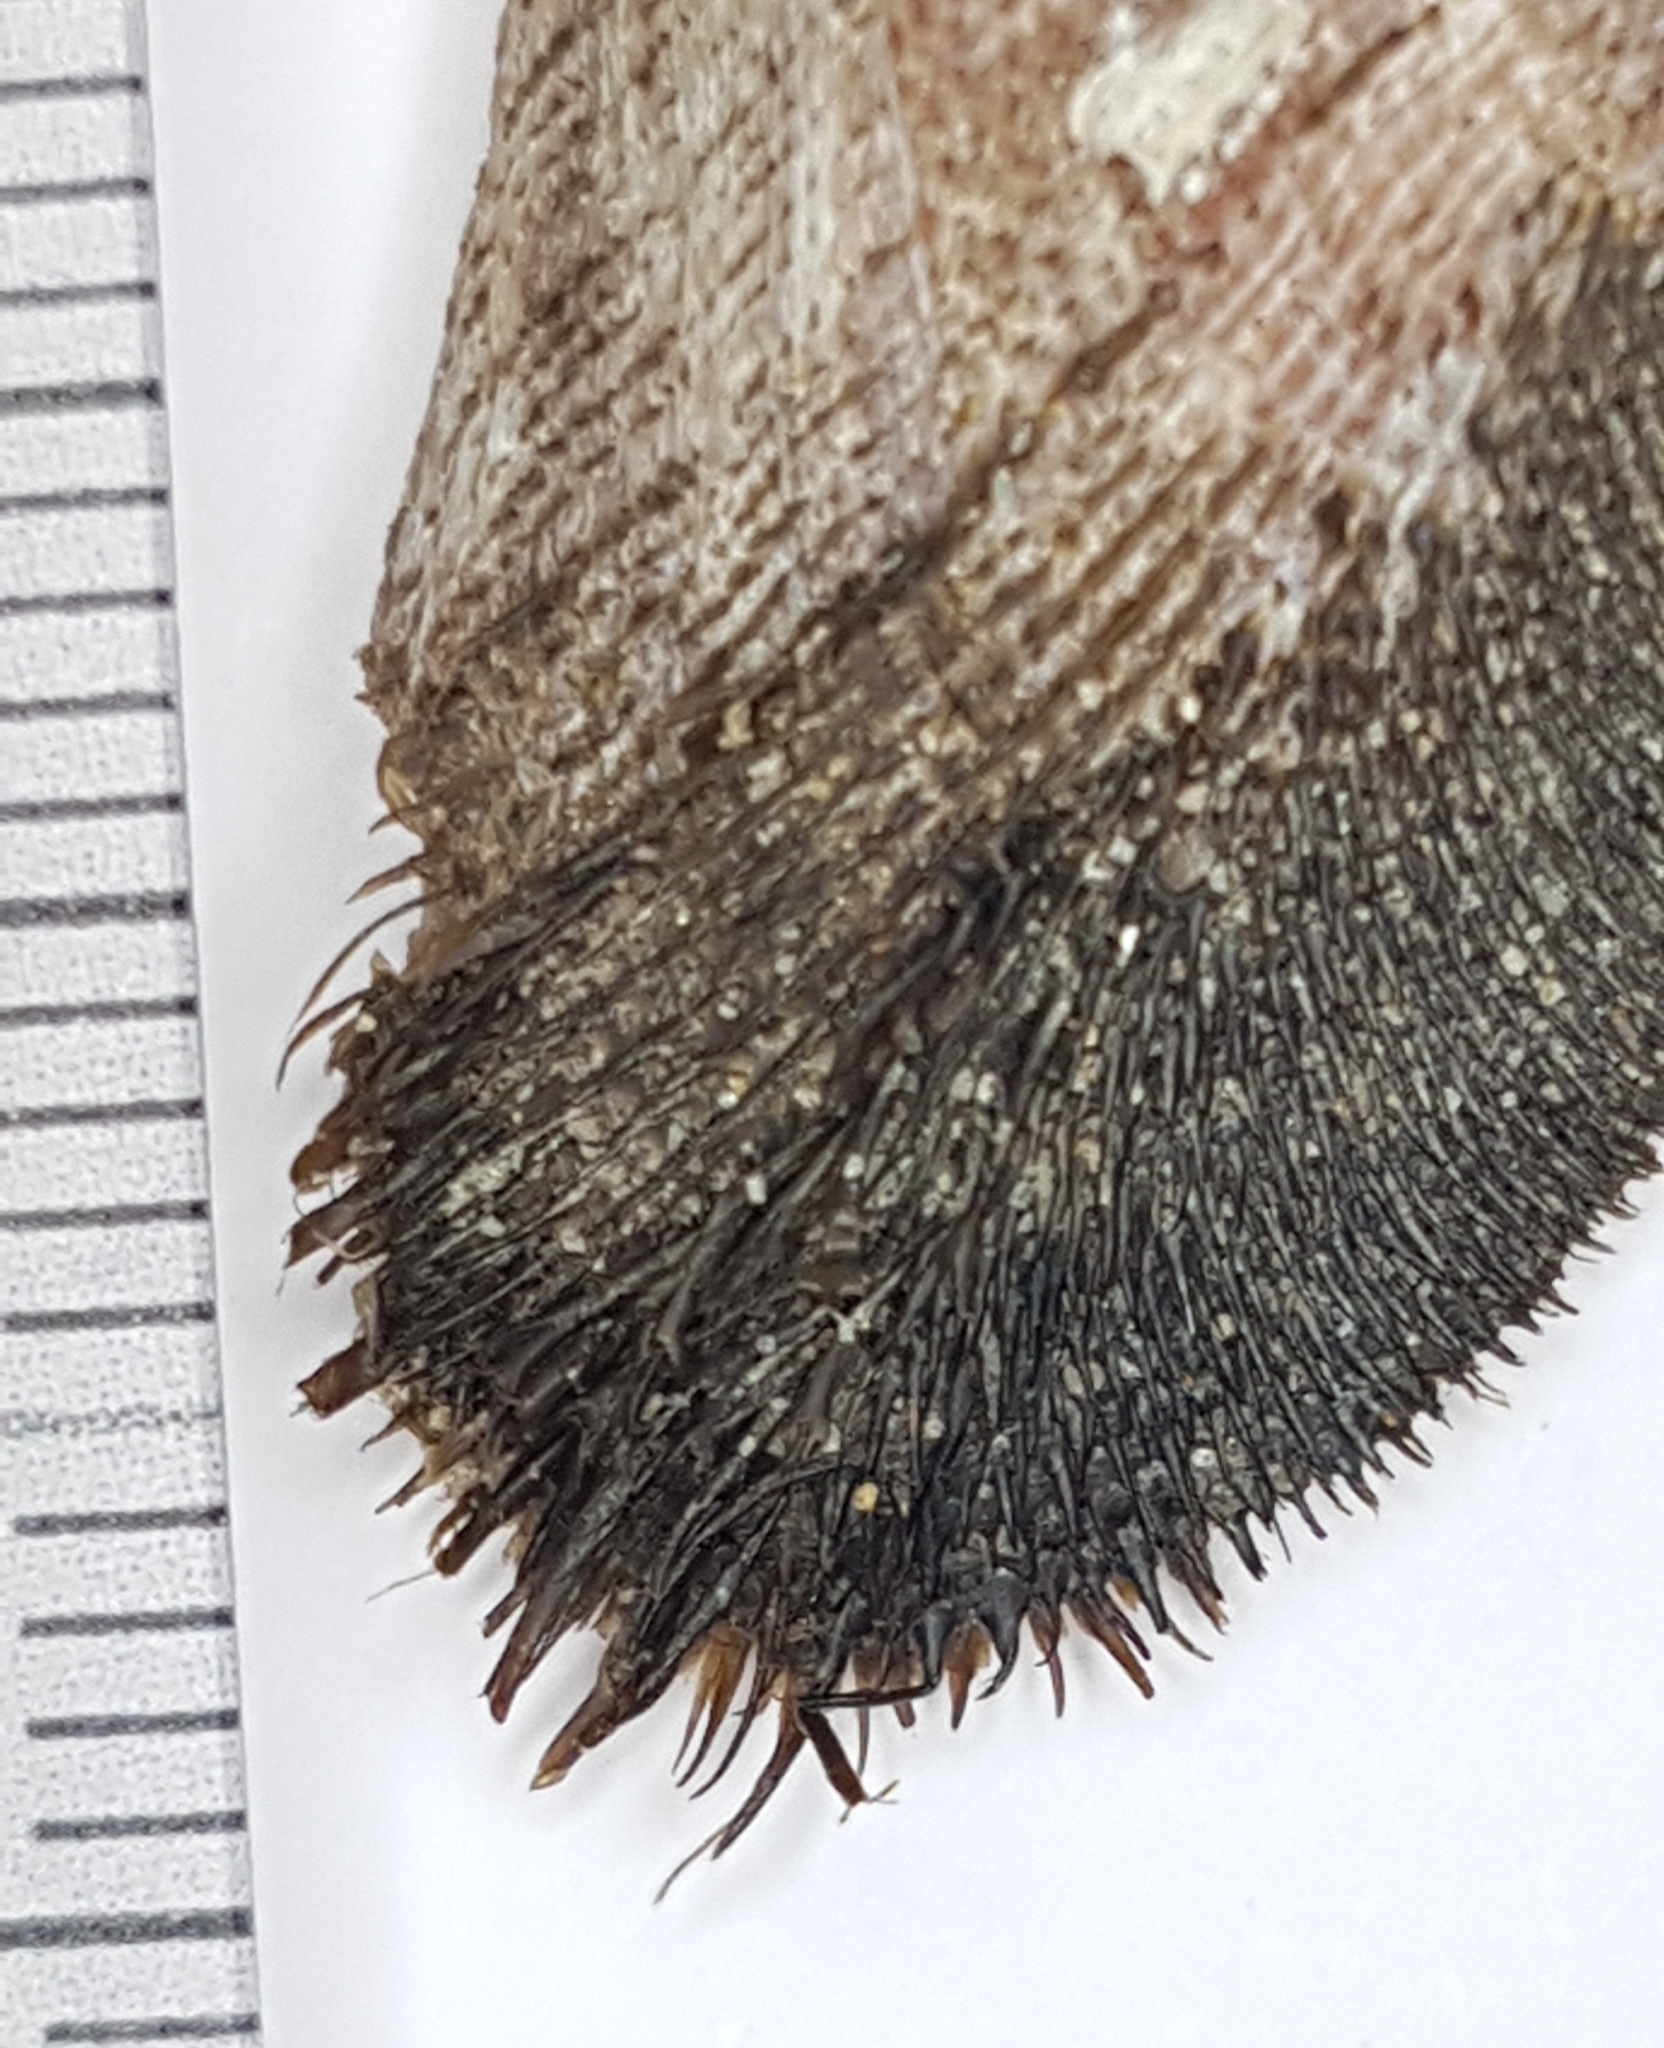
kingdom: Animalia
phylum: Mollusca
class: Bivalvia
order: Arcida
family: Arcidae
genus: Barbatia
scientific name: Barbatia barbata
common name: Bearded ark
